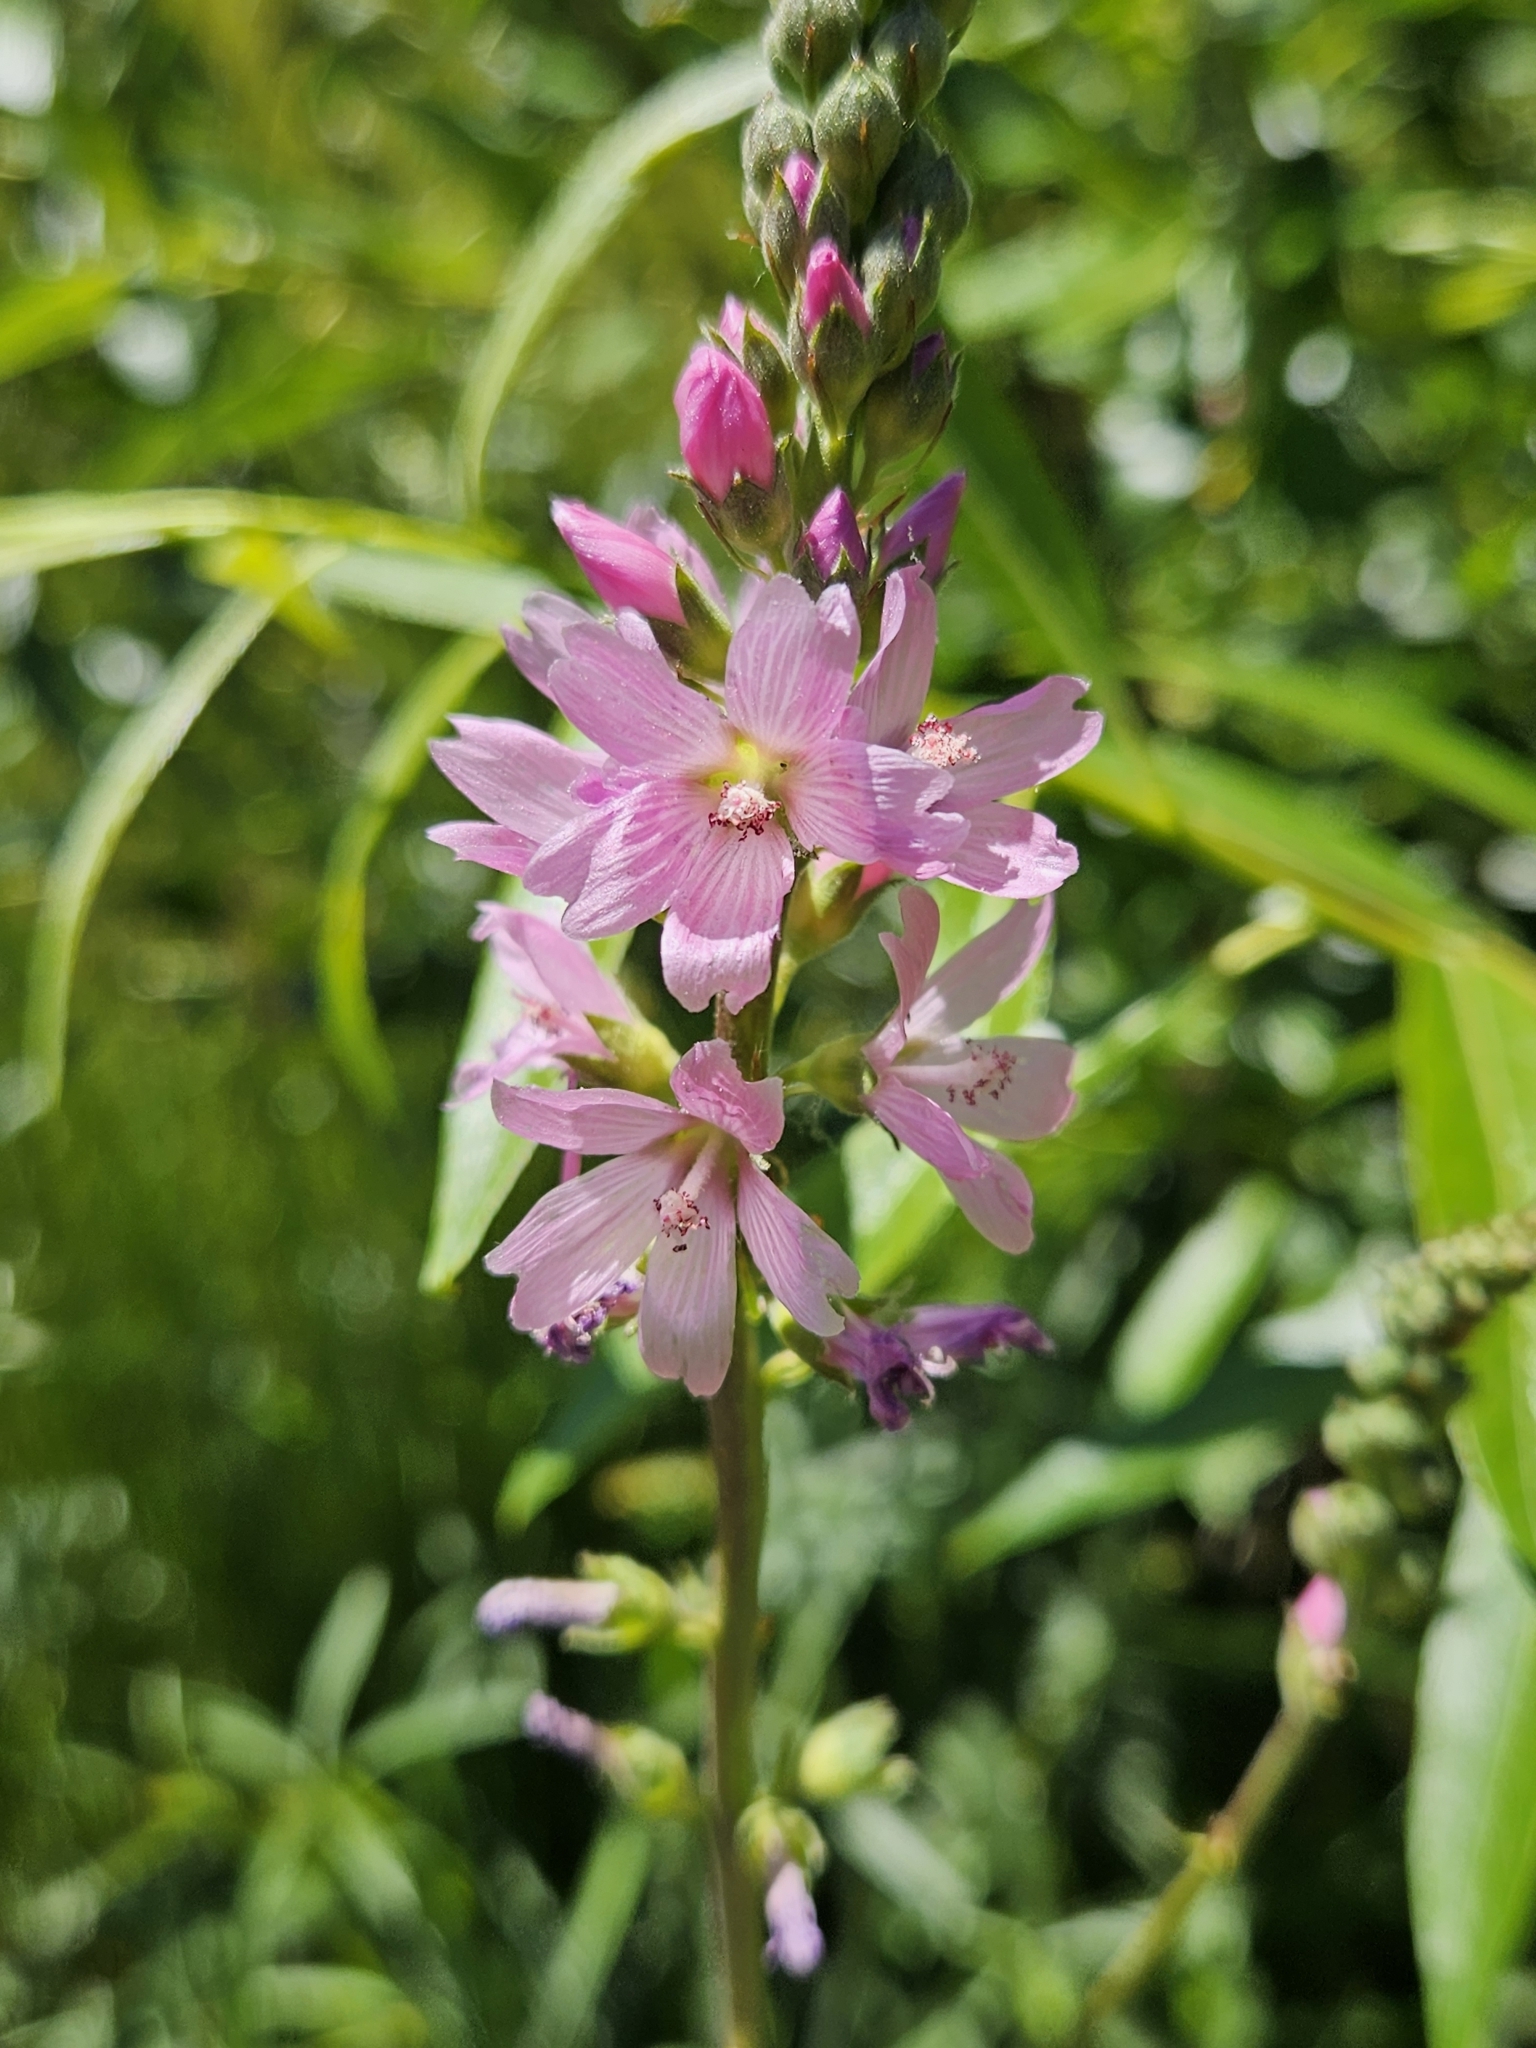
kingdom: Plantae
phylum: Tracheophyta
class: Magnoliopsida
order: Malvales
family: Malvaceae
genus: Sidalcea
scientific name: Sidalcea oregana
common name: Oregon checker-mallow
